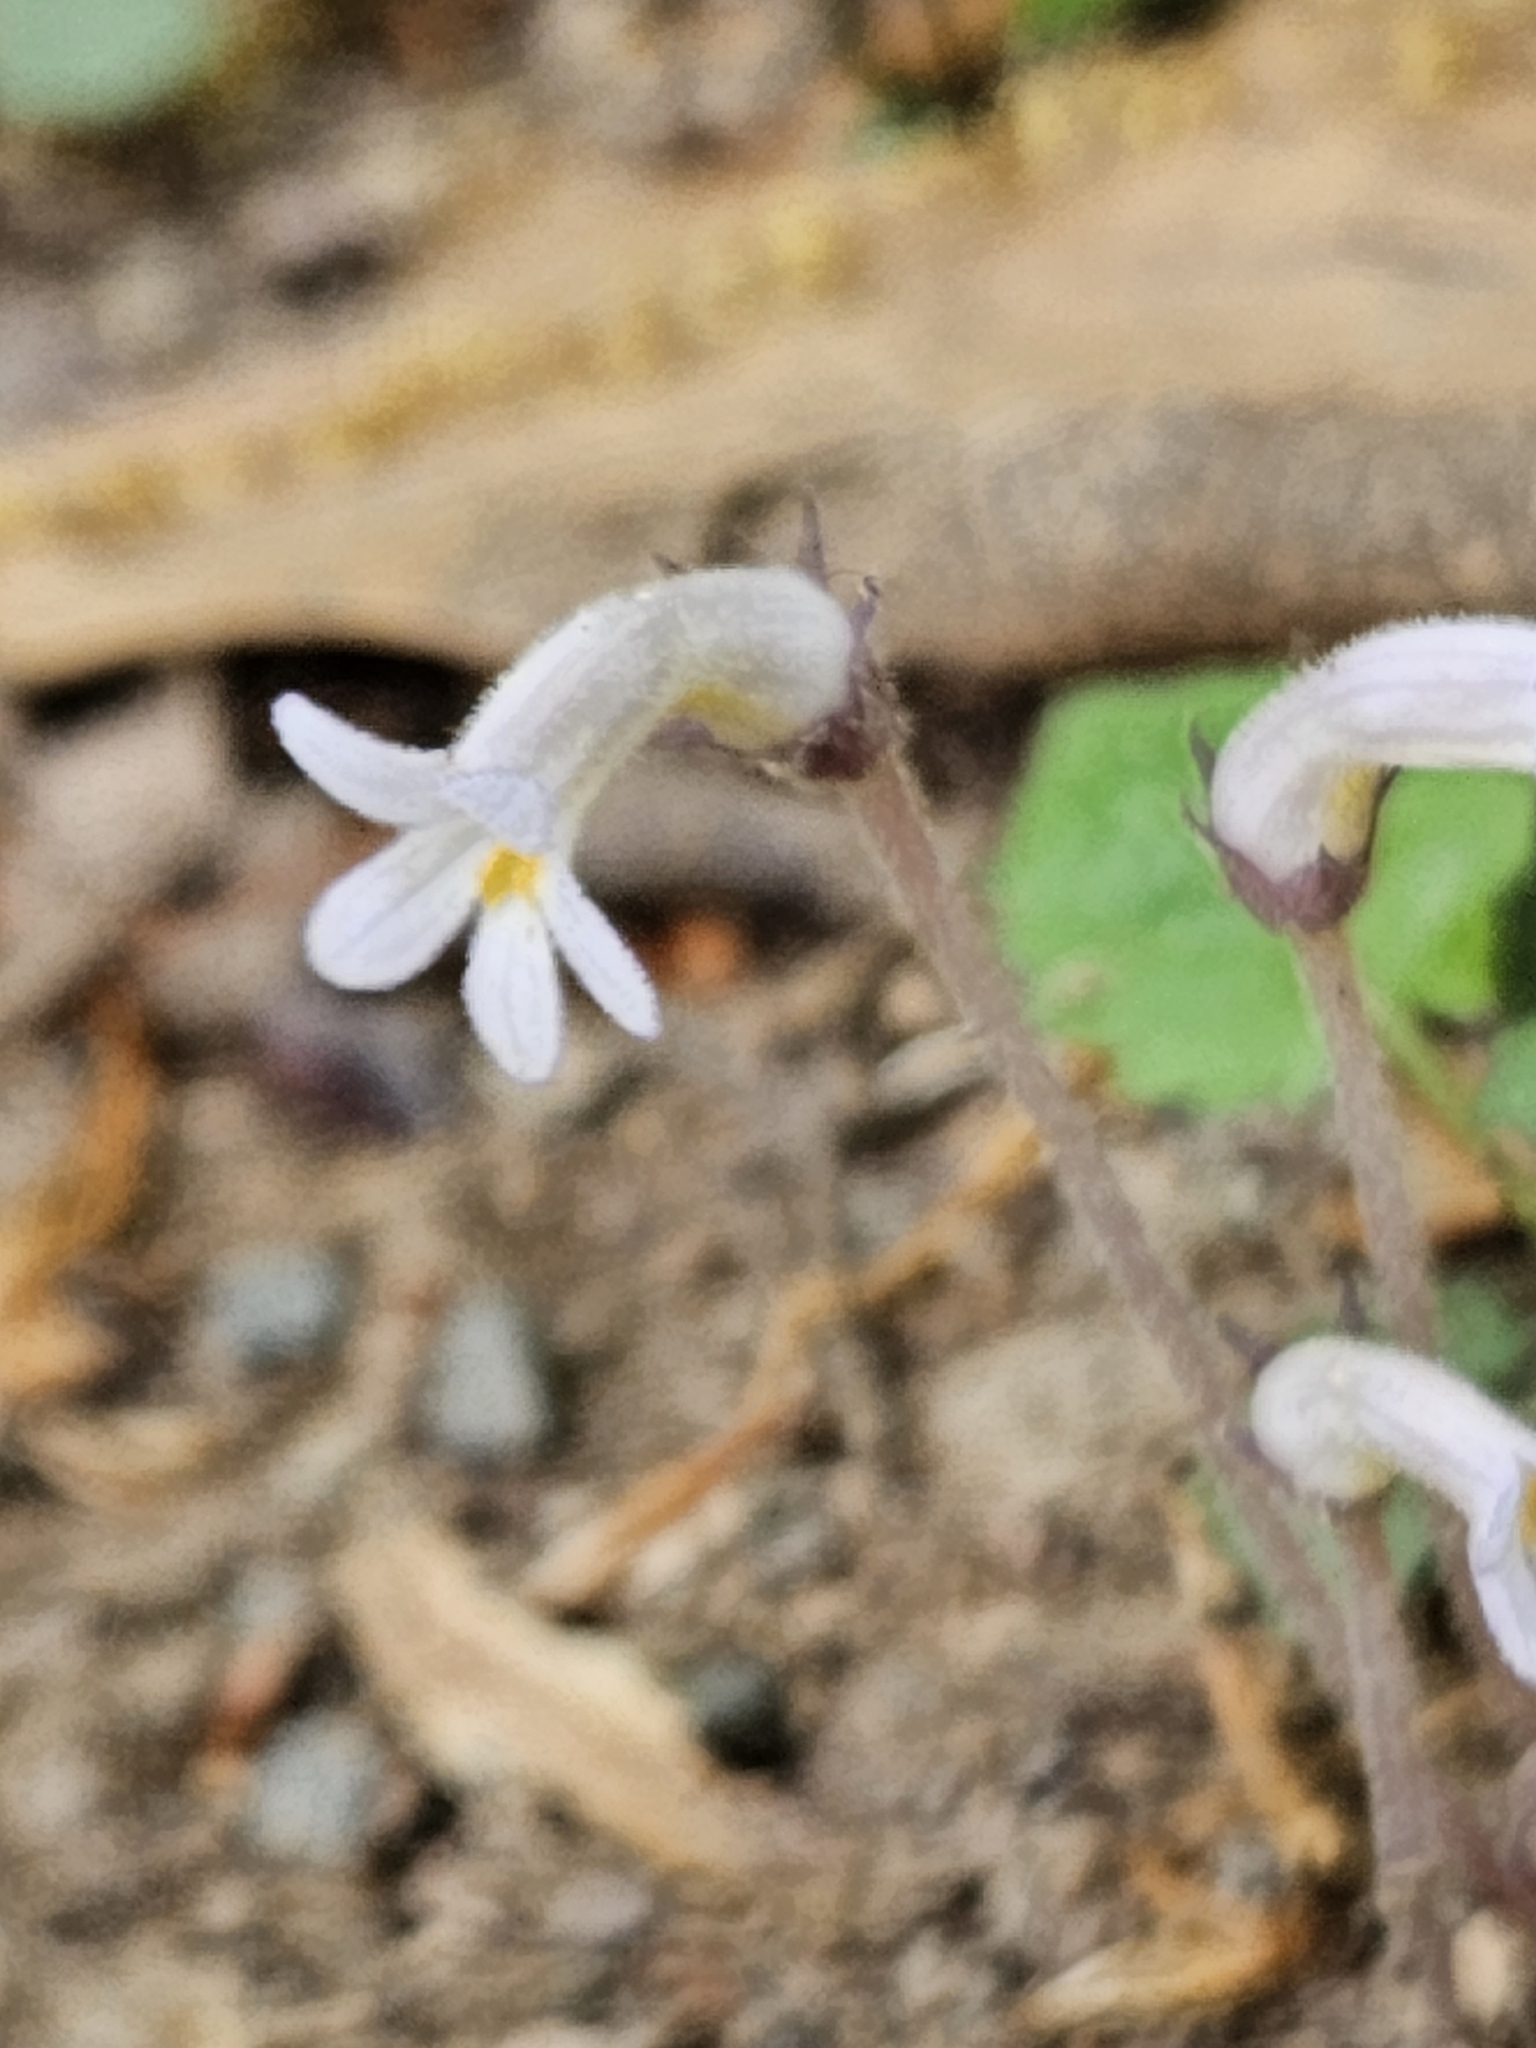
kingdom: Plantae
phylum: Tracheophyta
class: Magnoliopsida
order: Lamiales
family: Orobanchaceae
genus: Aphyllon
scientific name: Aphyllon uniflorum
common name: One-flowered broomrape
